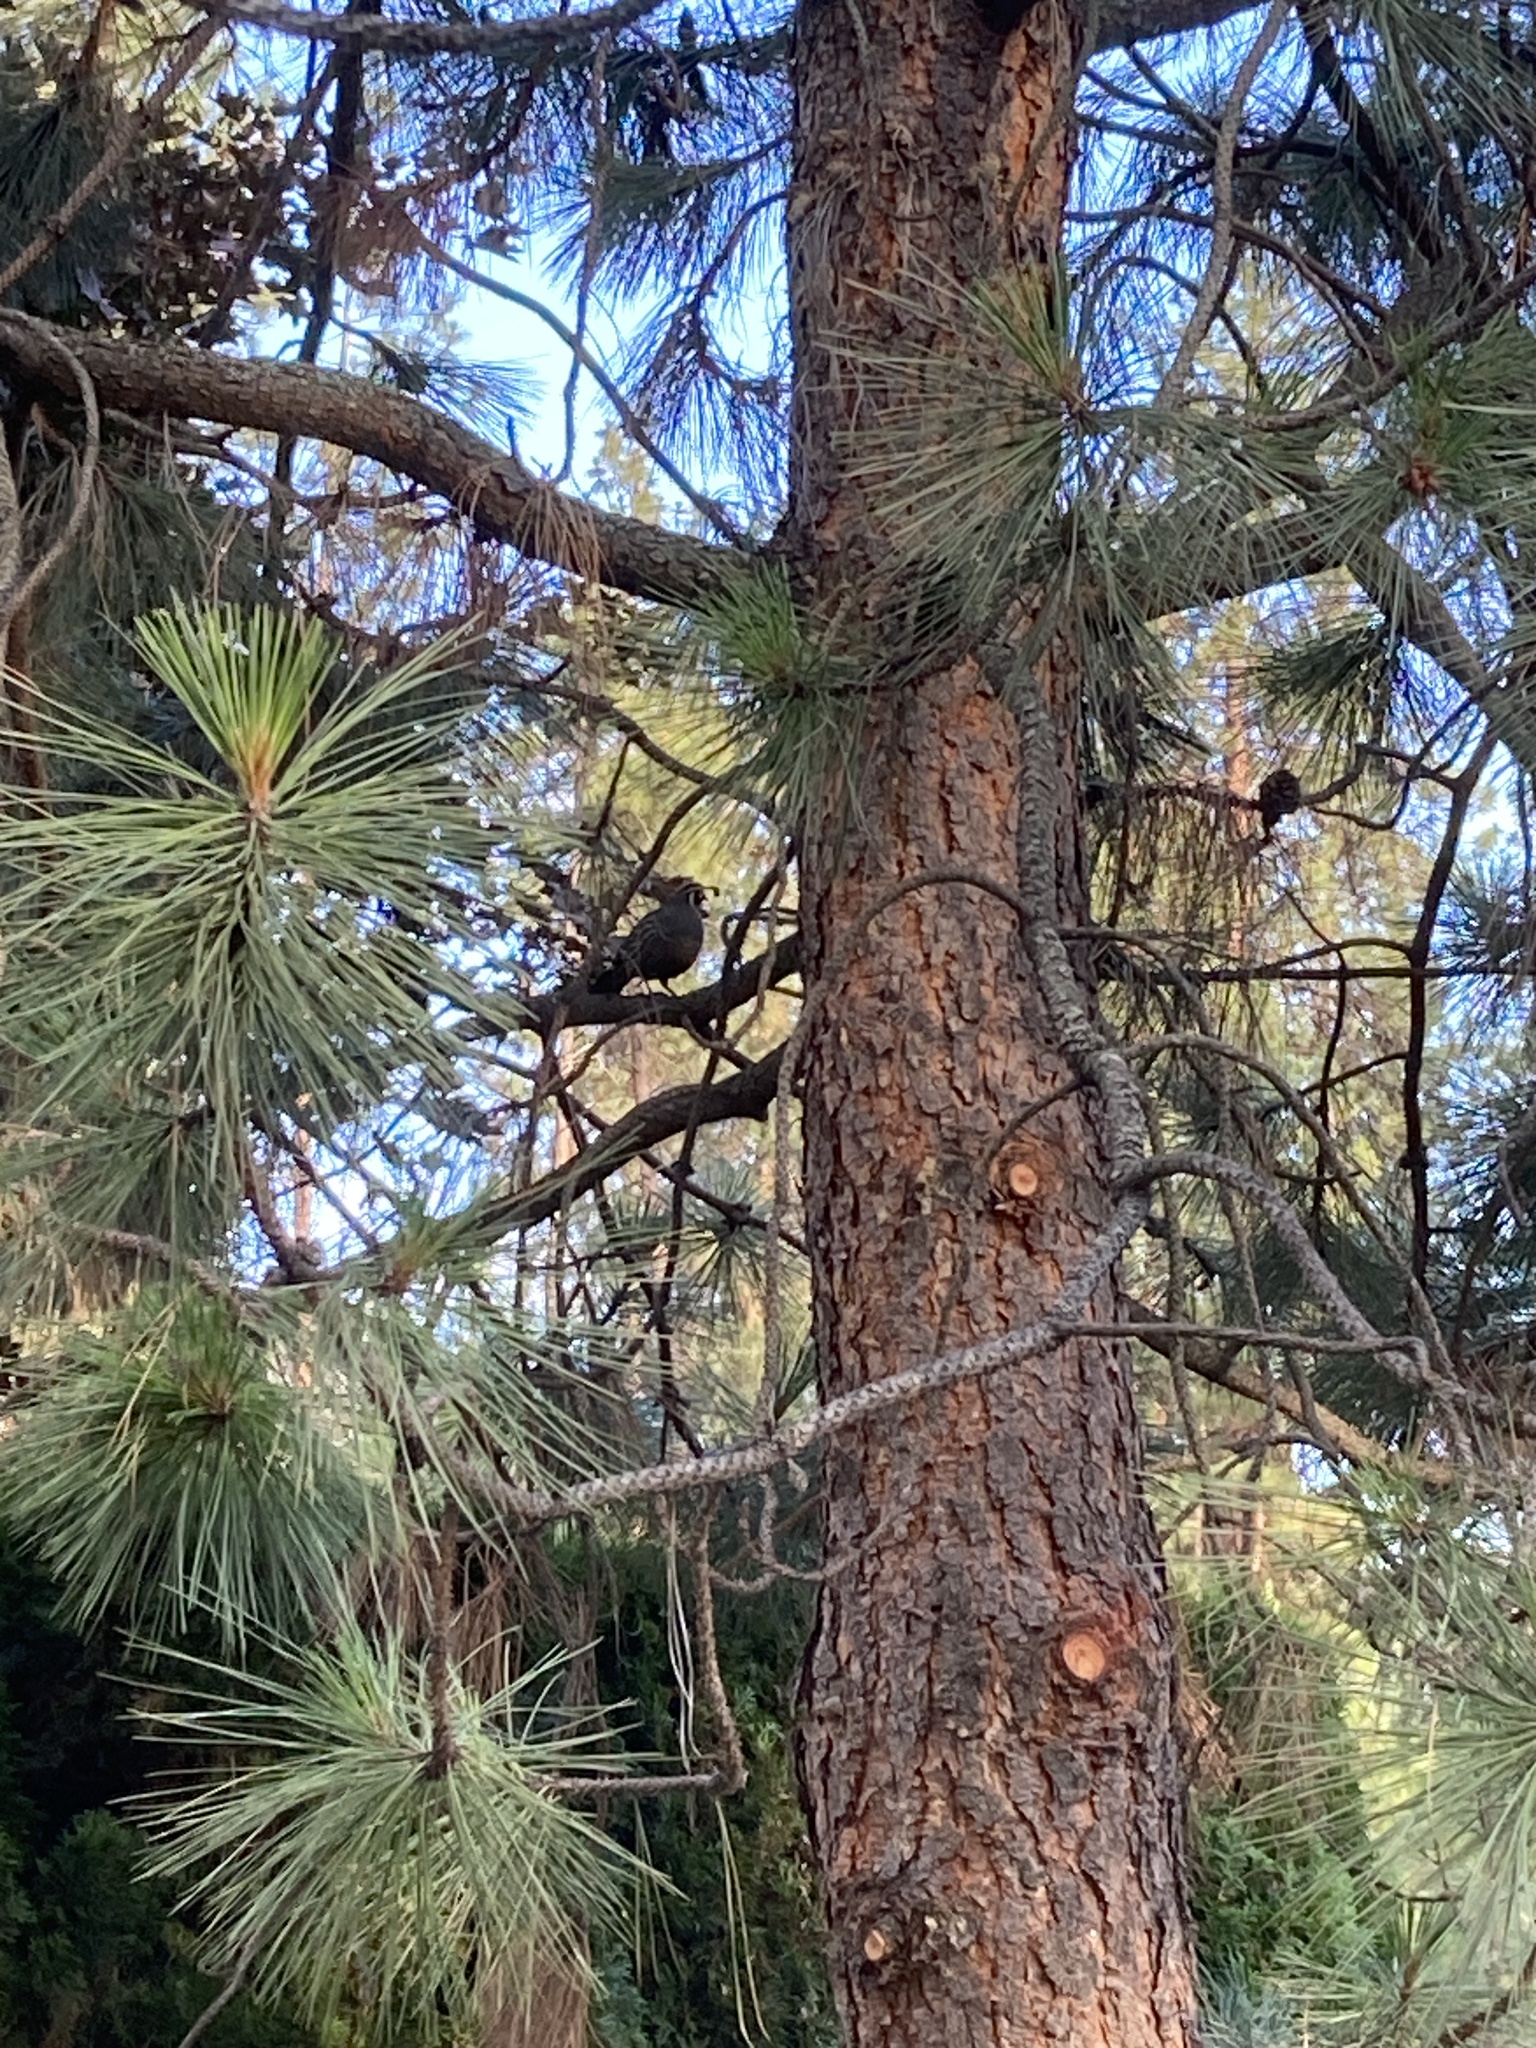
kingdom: Animalia
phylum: Chordata
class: Aves
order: Galliformes
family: Odontophoridae
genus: Callipepla
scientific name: Callipepla californica
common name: California quail
